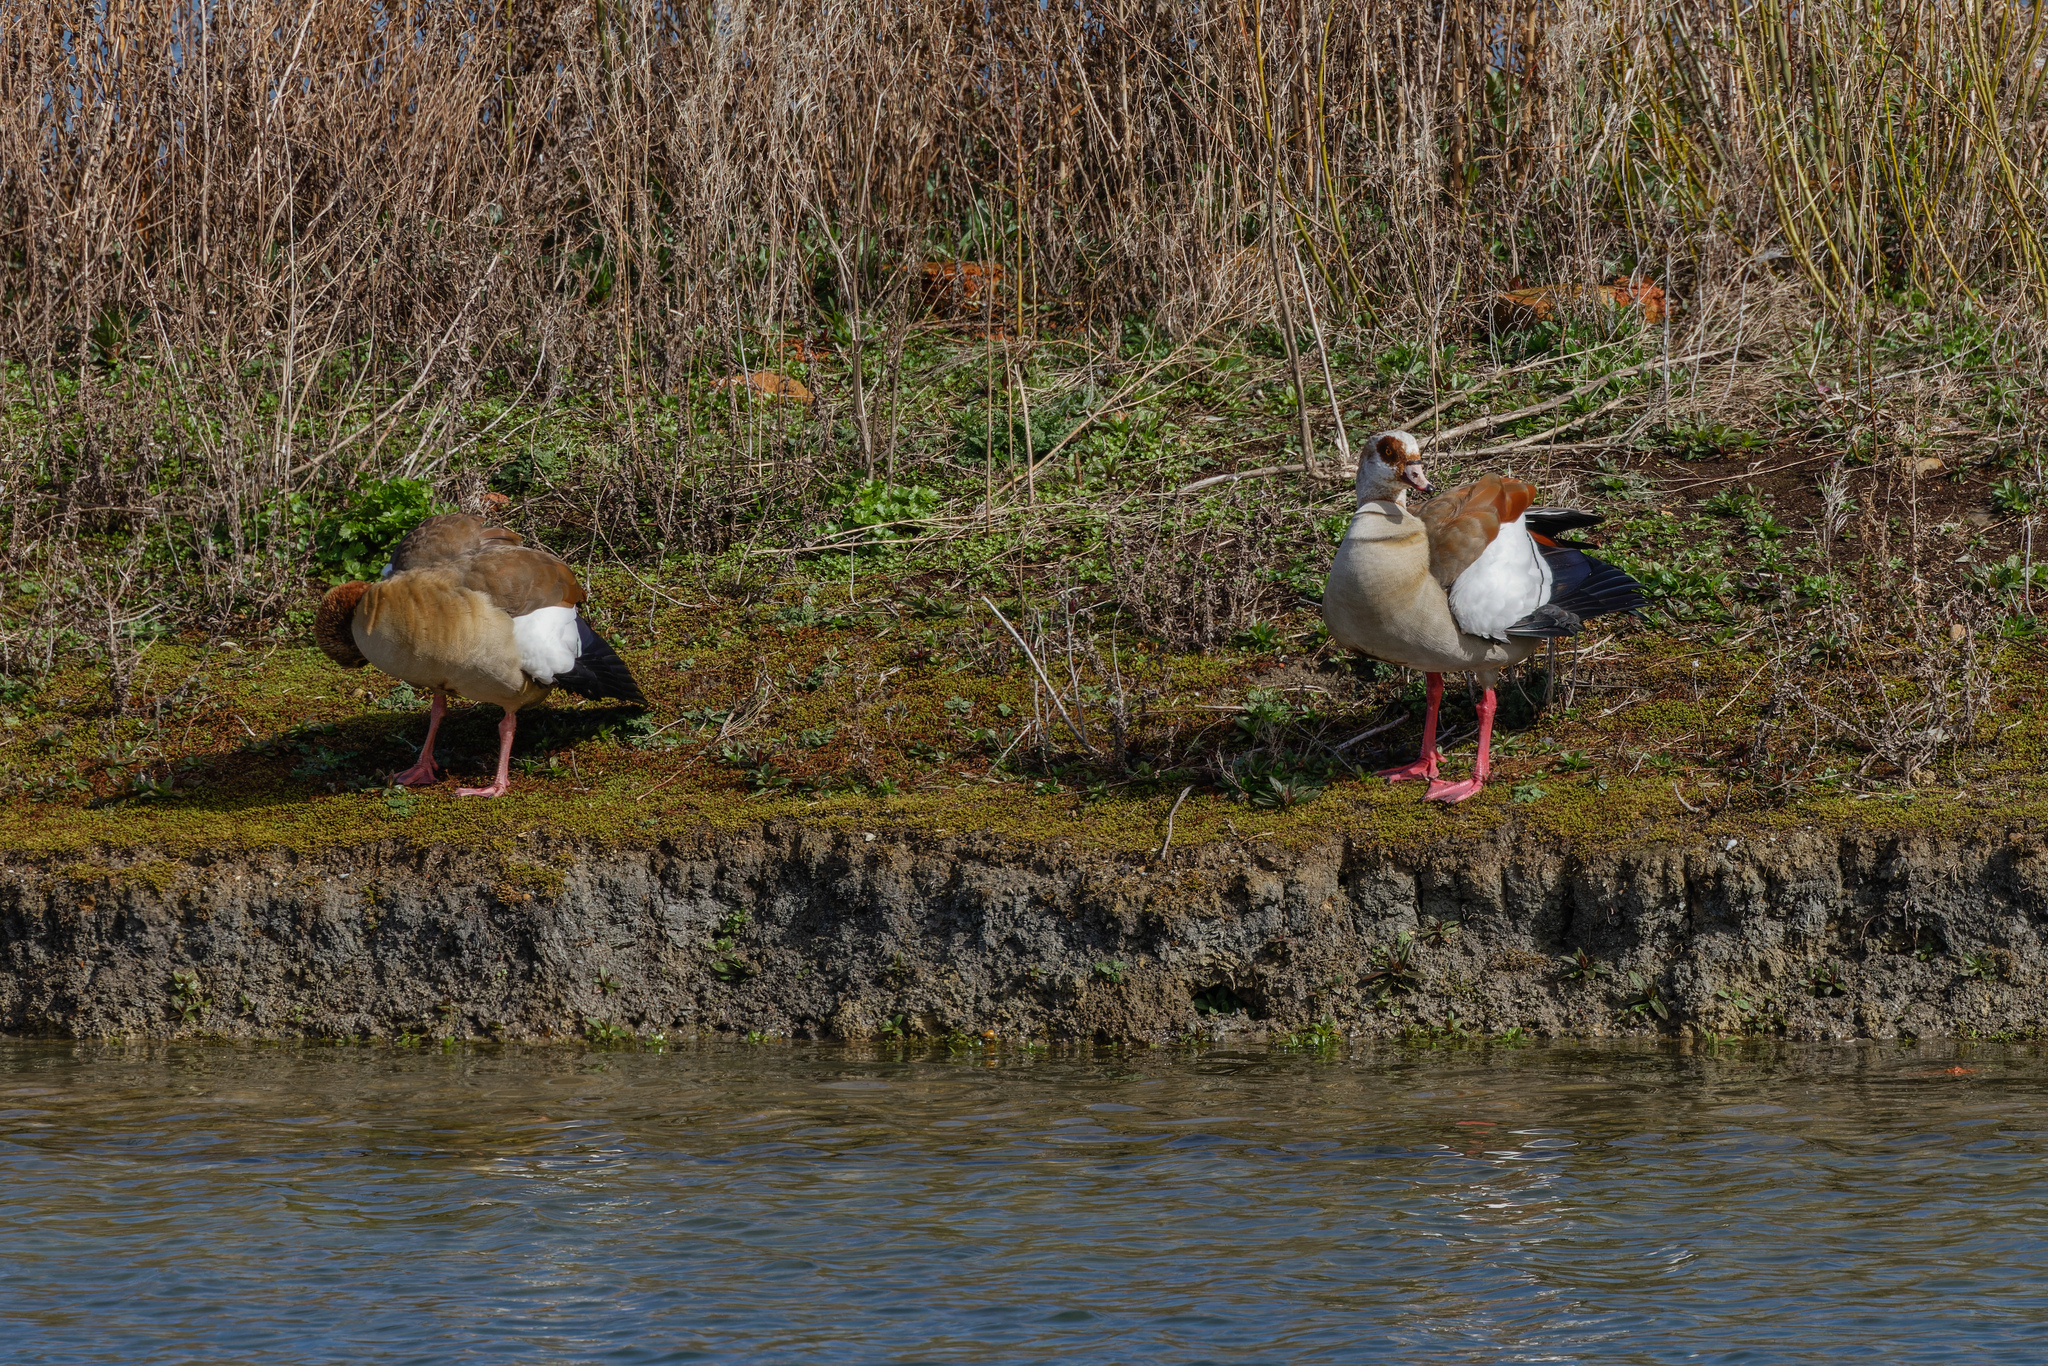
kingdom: Animalia
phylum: Chordata
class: Aves
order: Anseriformes
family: Anatidae
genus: Alopochen
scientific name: Alopochen aegyptiaca
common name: Egyptian goose
